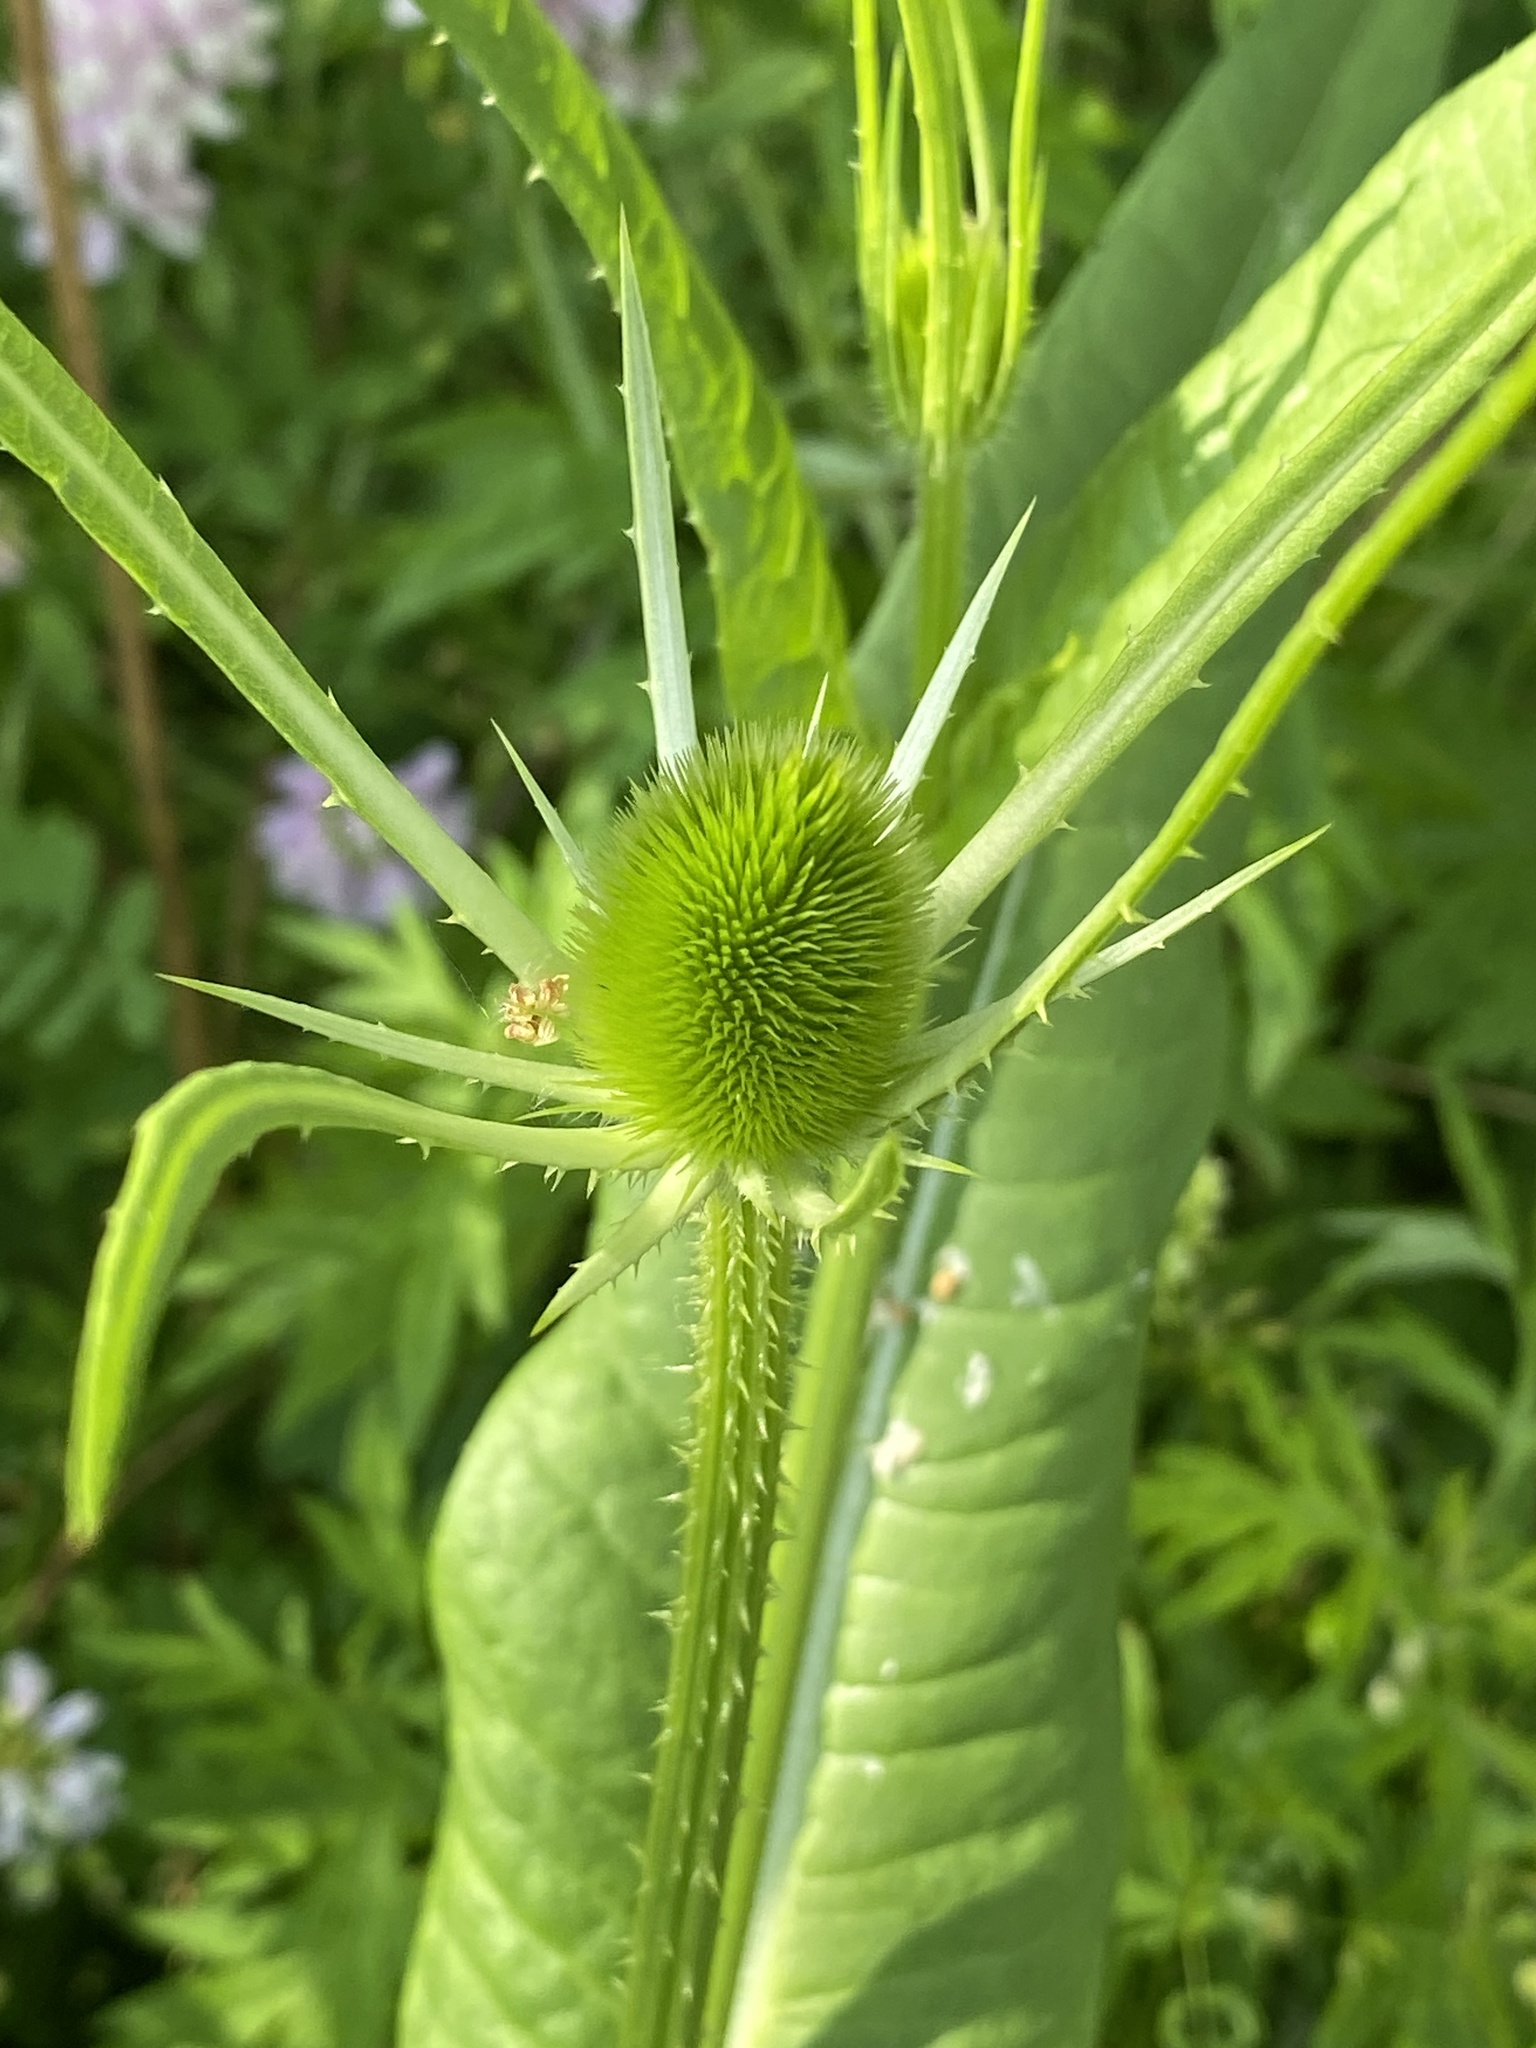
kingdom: Plantae
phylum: Tracheophyta
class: Magnoliopsida
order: Dipsacales
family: Caprifoliaceae
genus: Dipsacus
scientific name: Dipsacus fullonum
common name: Teasel
